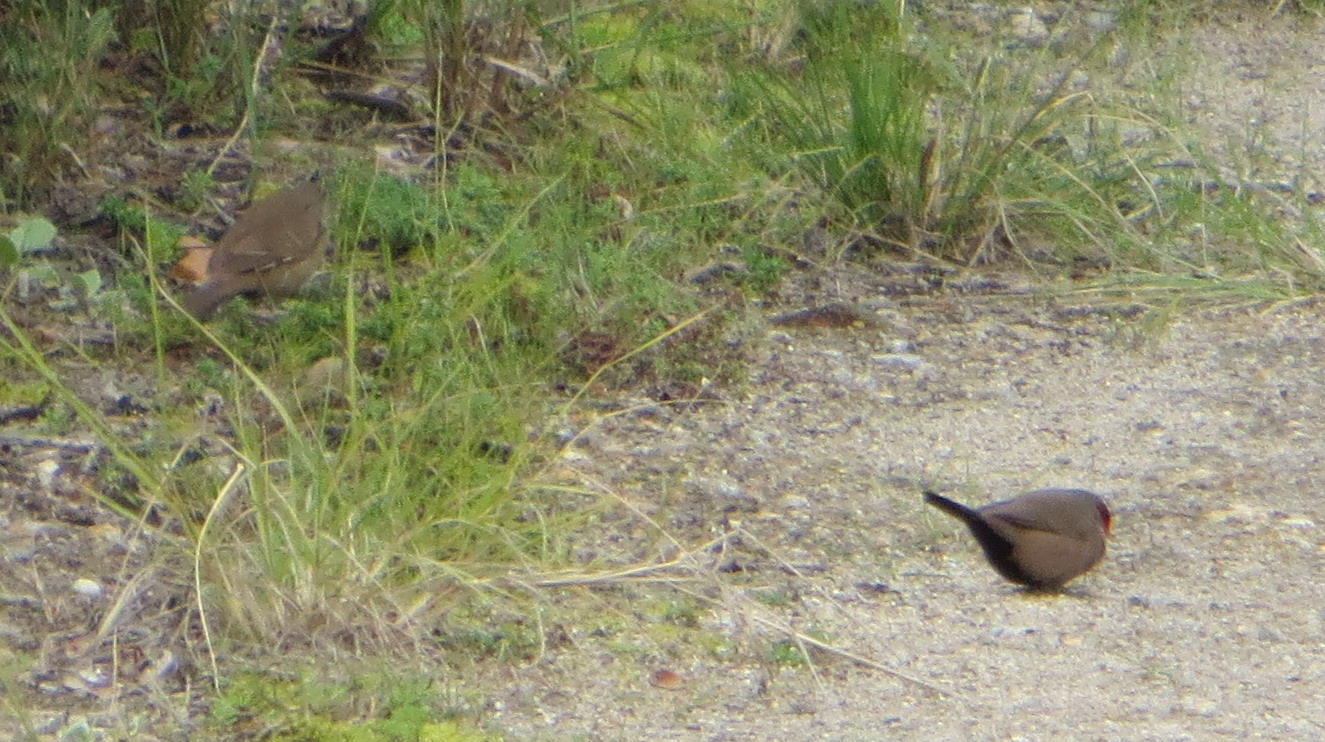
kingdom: Animalia
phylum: Chordata
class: Aves
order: Passeriformes
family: Estrildidae
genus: Estrilda
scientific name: Estrilda astrild
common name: Common waxbill
